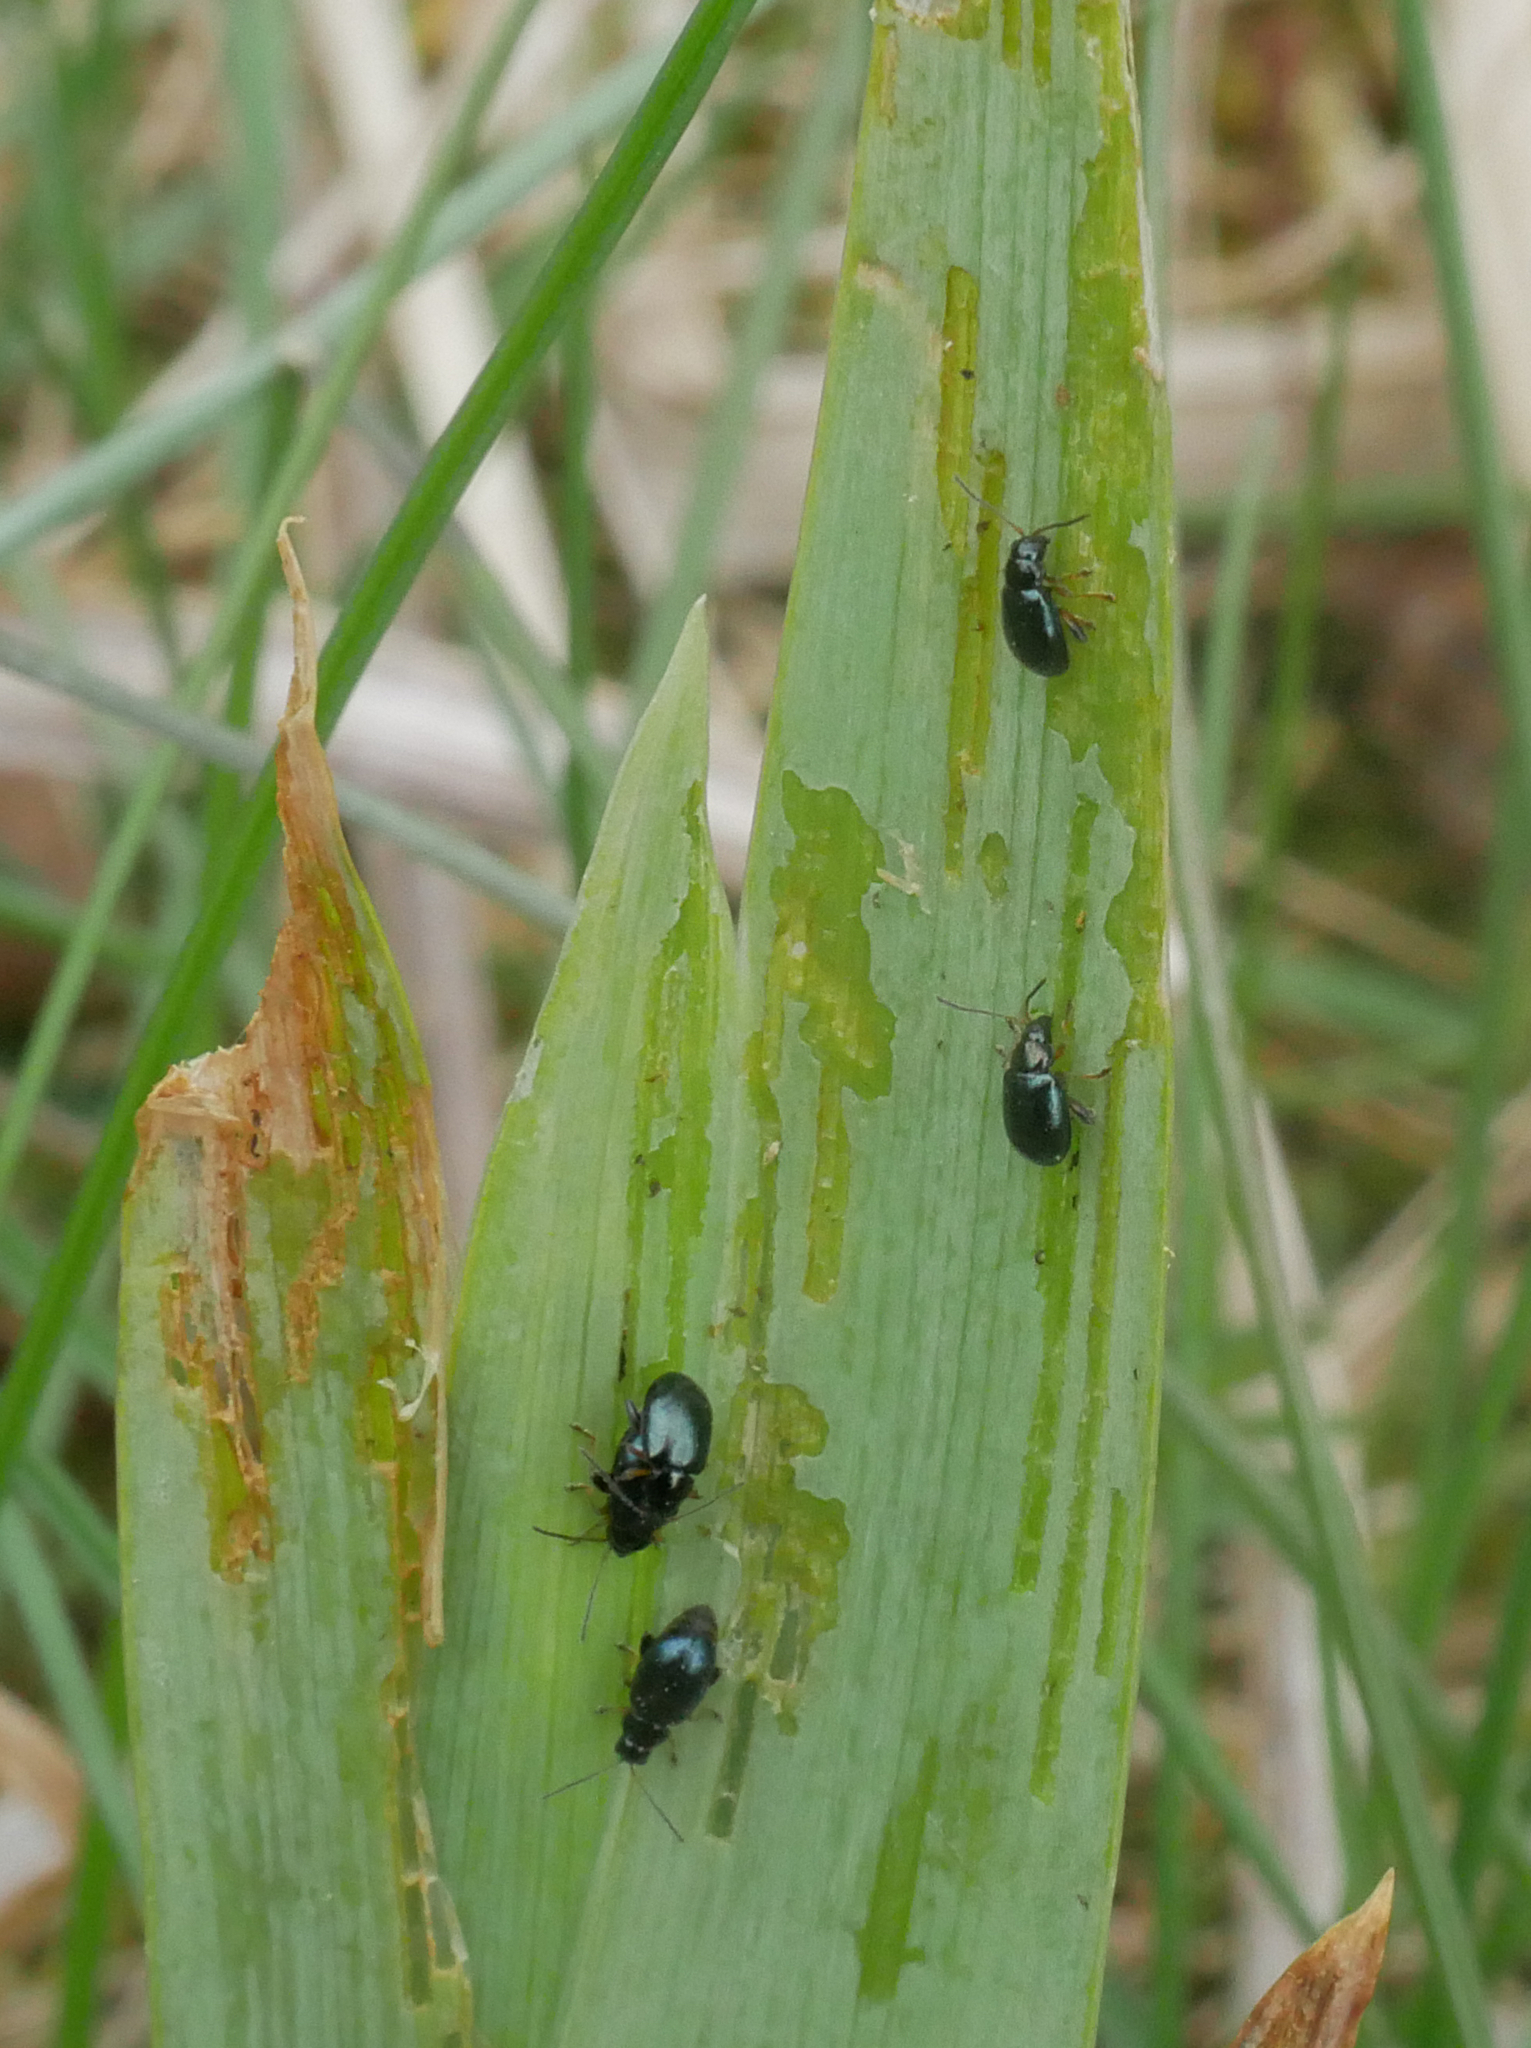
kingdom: Animalia
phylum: Arthropoda
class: Insecta
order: Coleoptera
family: Chrysomelidae
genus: Aphthona
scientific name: Aphthona nonstriata
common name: Iris flea beetle
